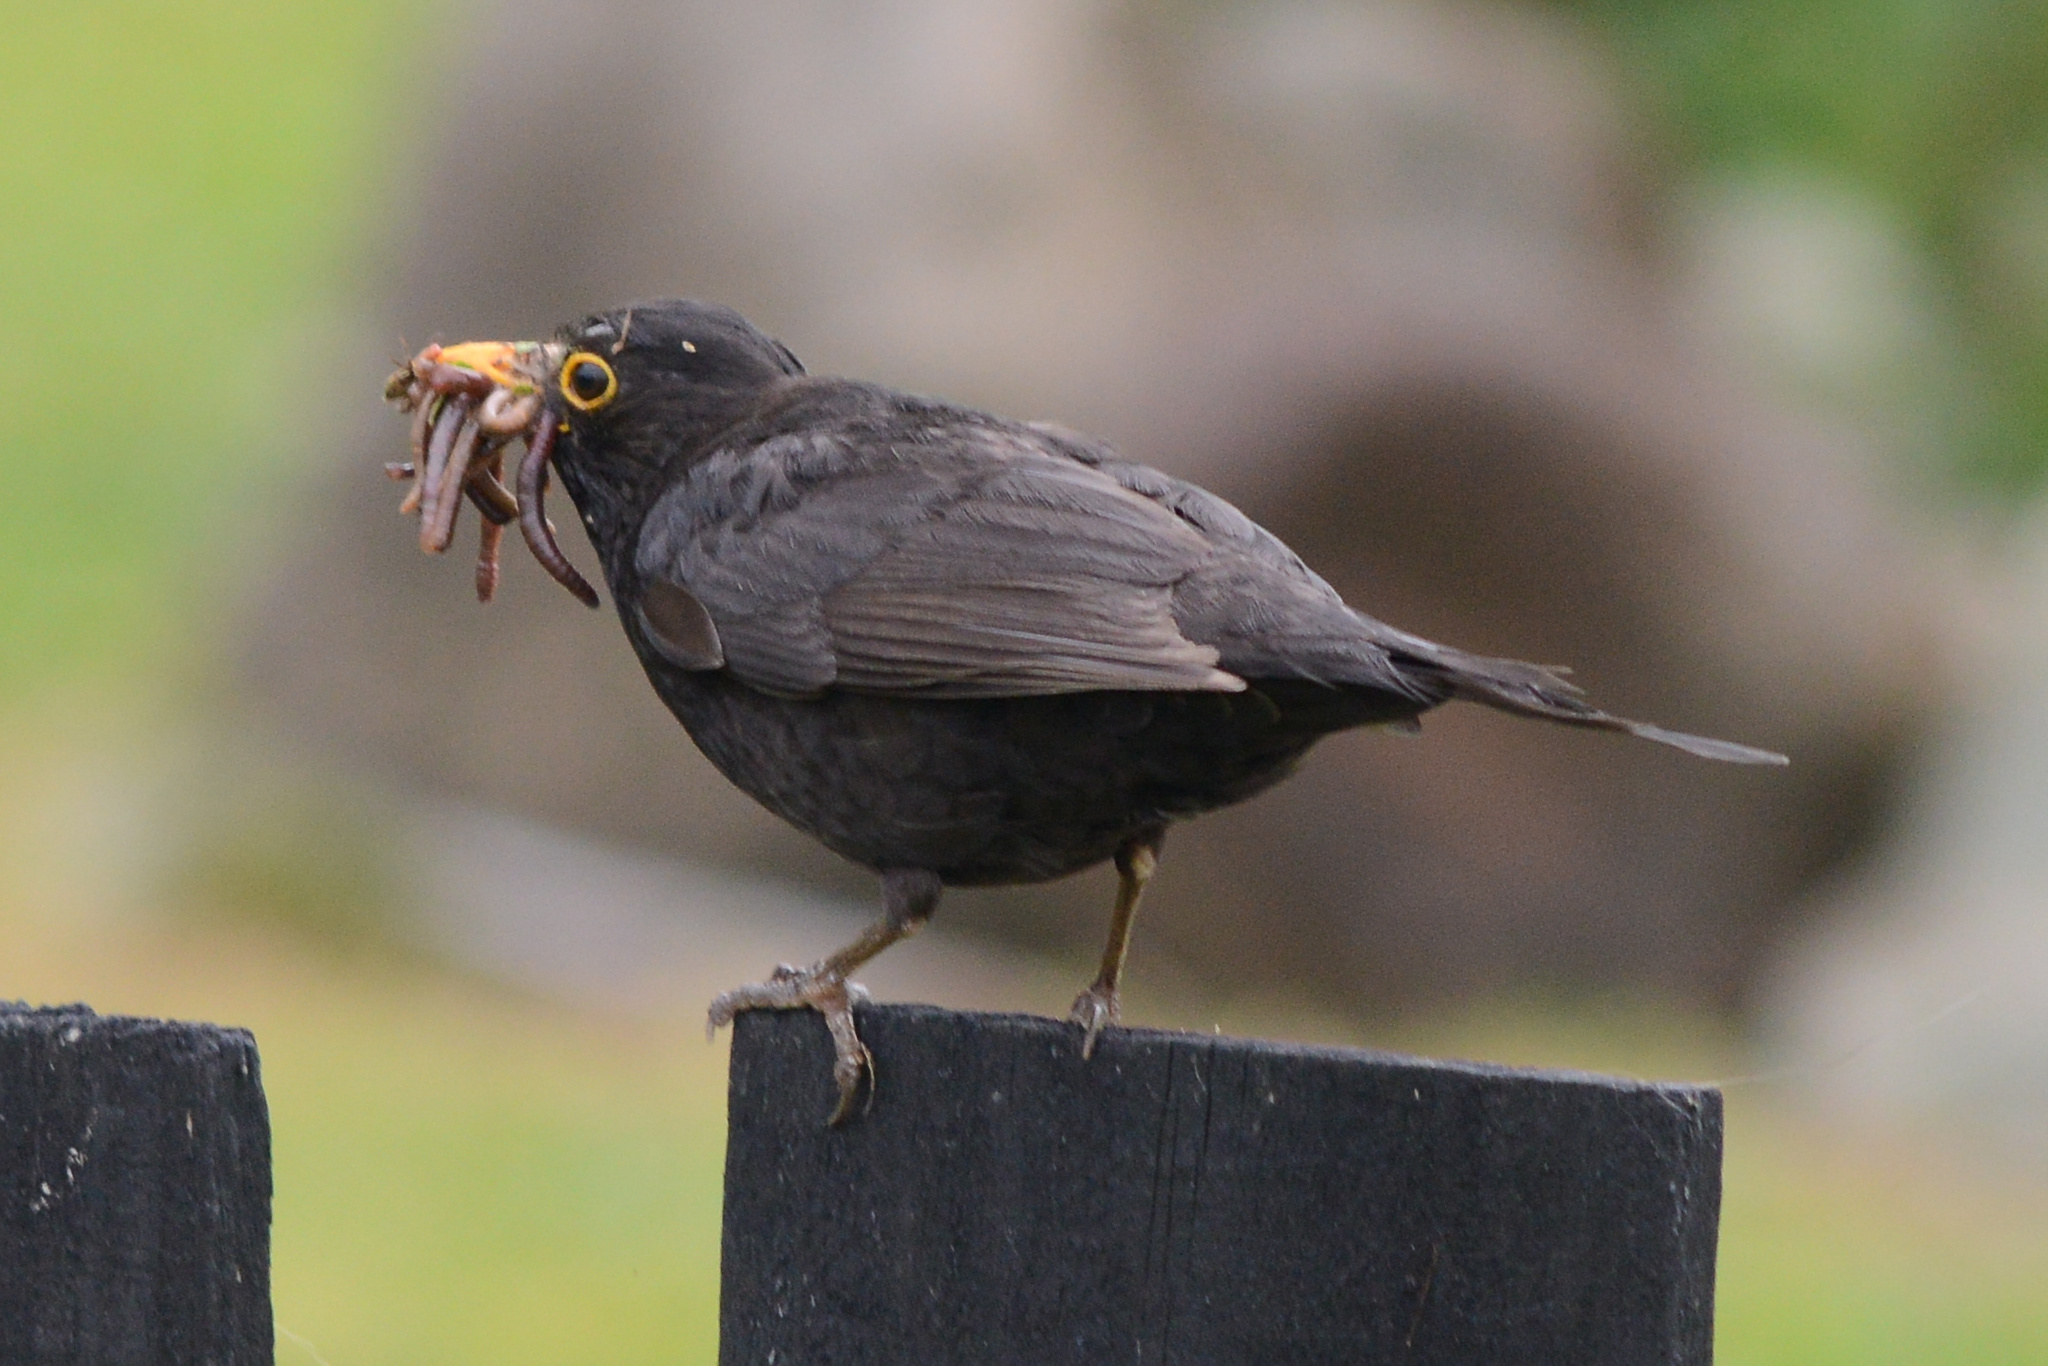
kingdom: Animalia
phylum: Chordata
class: Aves
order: Passeriformes
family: Turdidae
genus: Turdus
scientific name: Turdus merula
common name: Common blackbird
